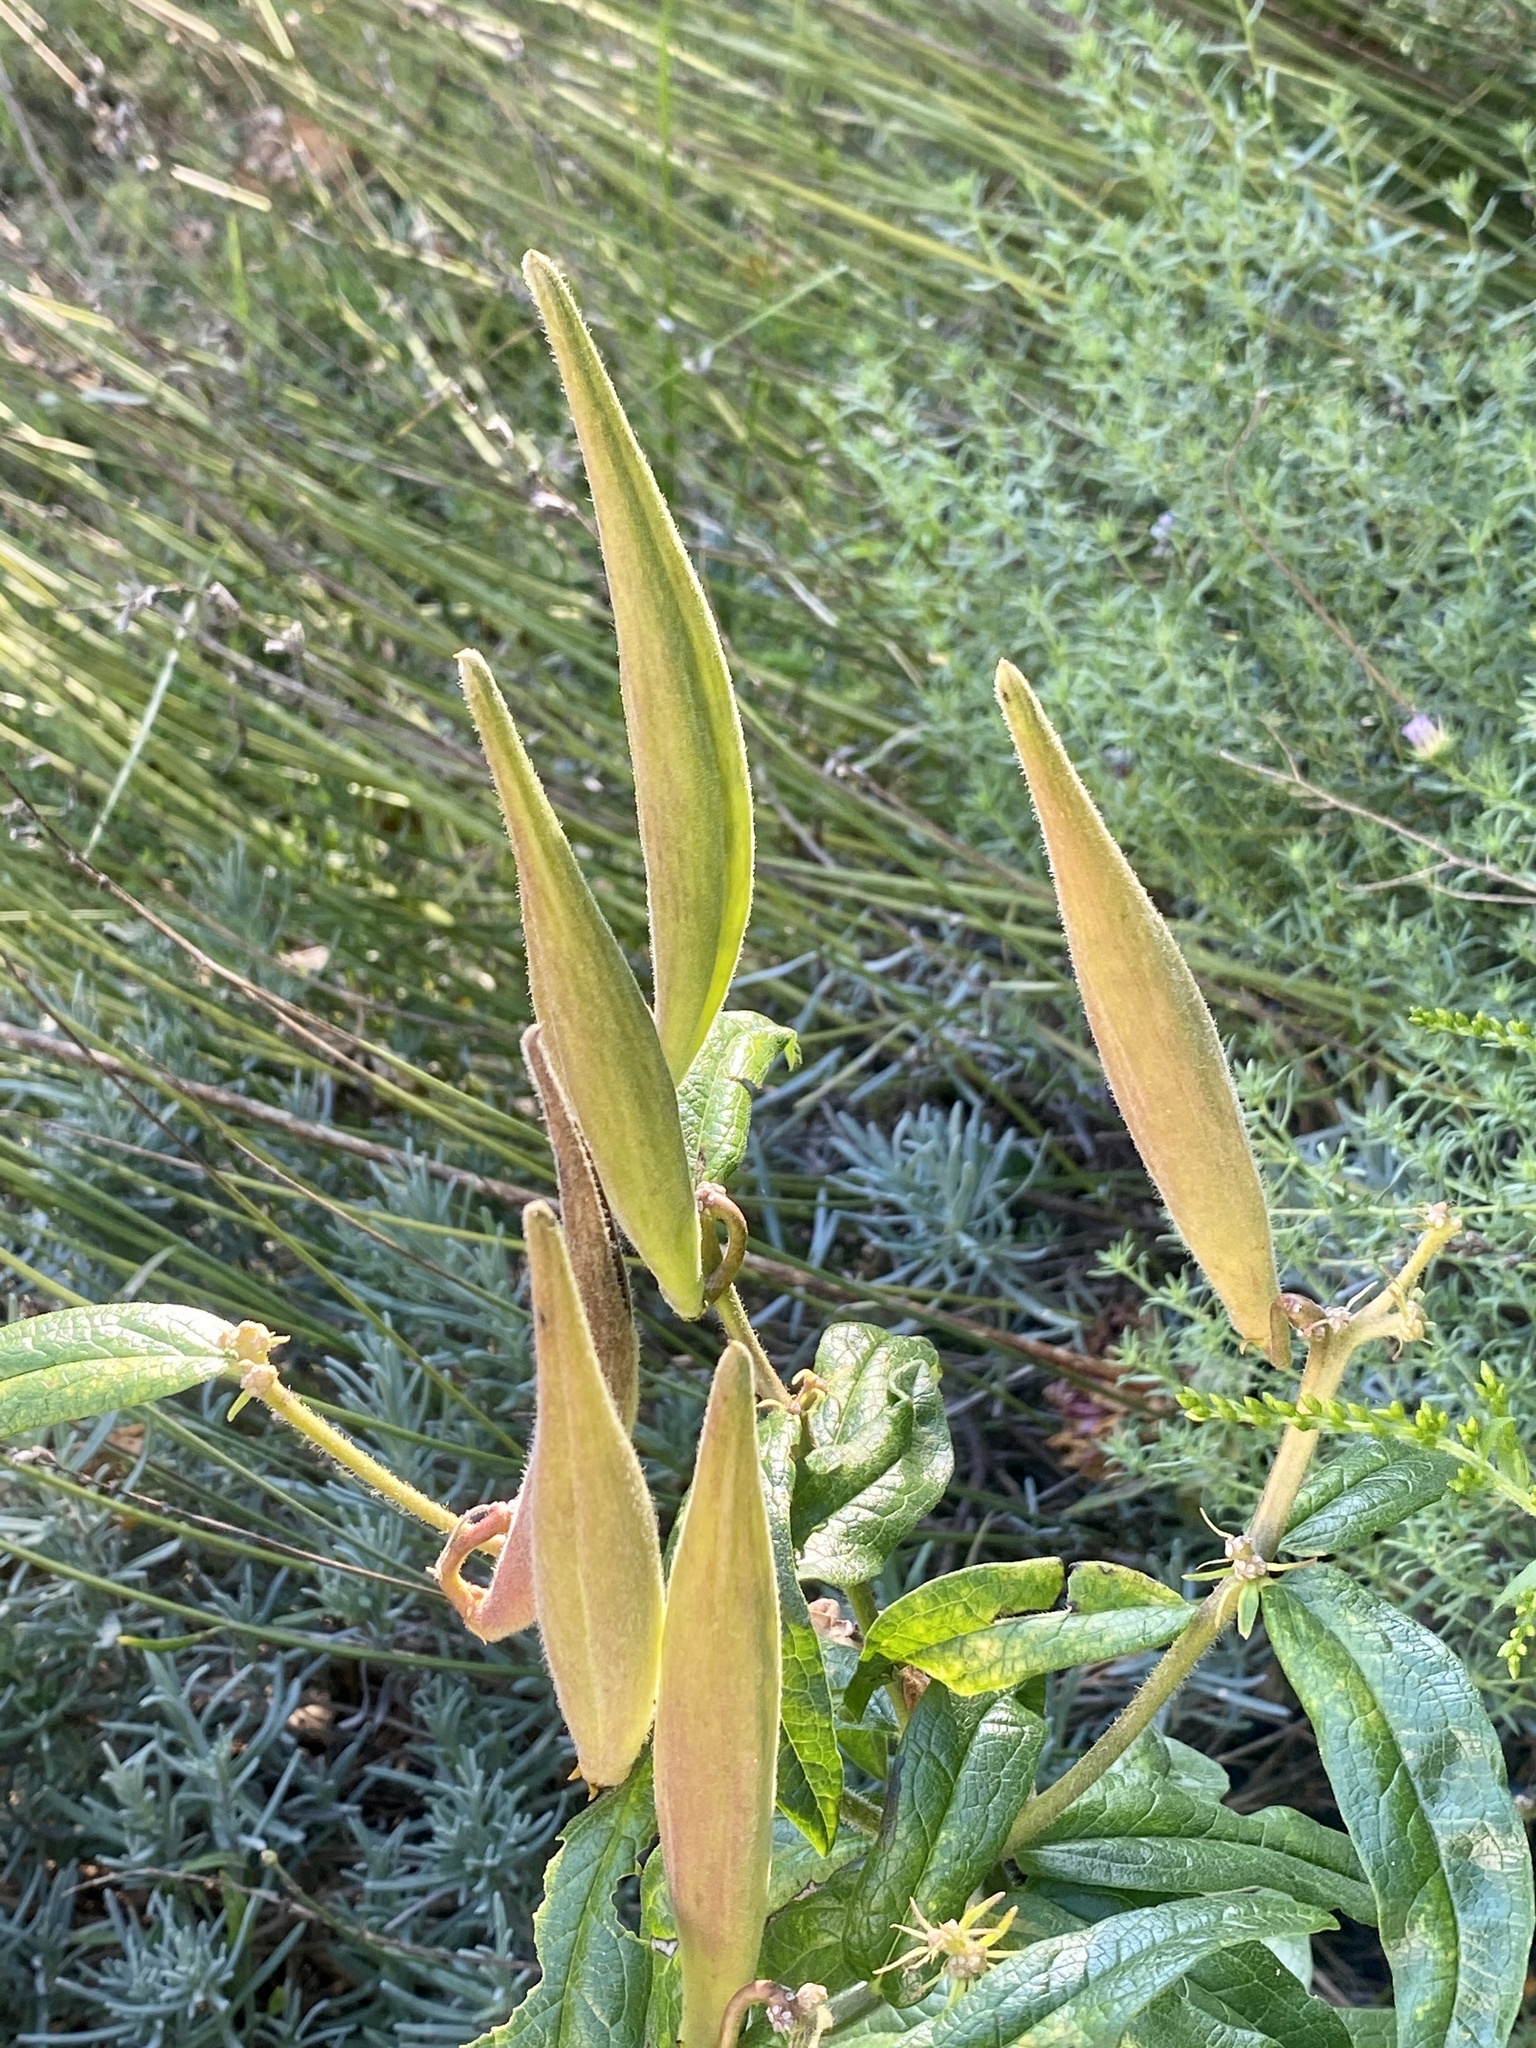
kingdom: Plantae
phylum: Tracheophyta
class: Magnoliopsida
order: Gentianales
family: Apocynaceae
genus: Asclepias
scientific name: Asclepias tuberosa
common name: Butterfly milkweed
